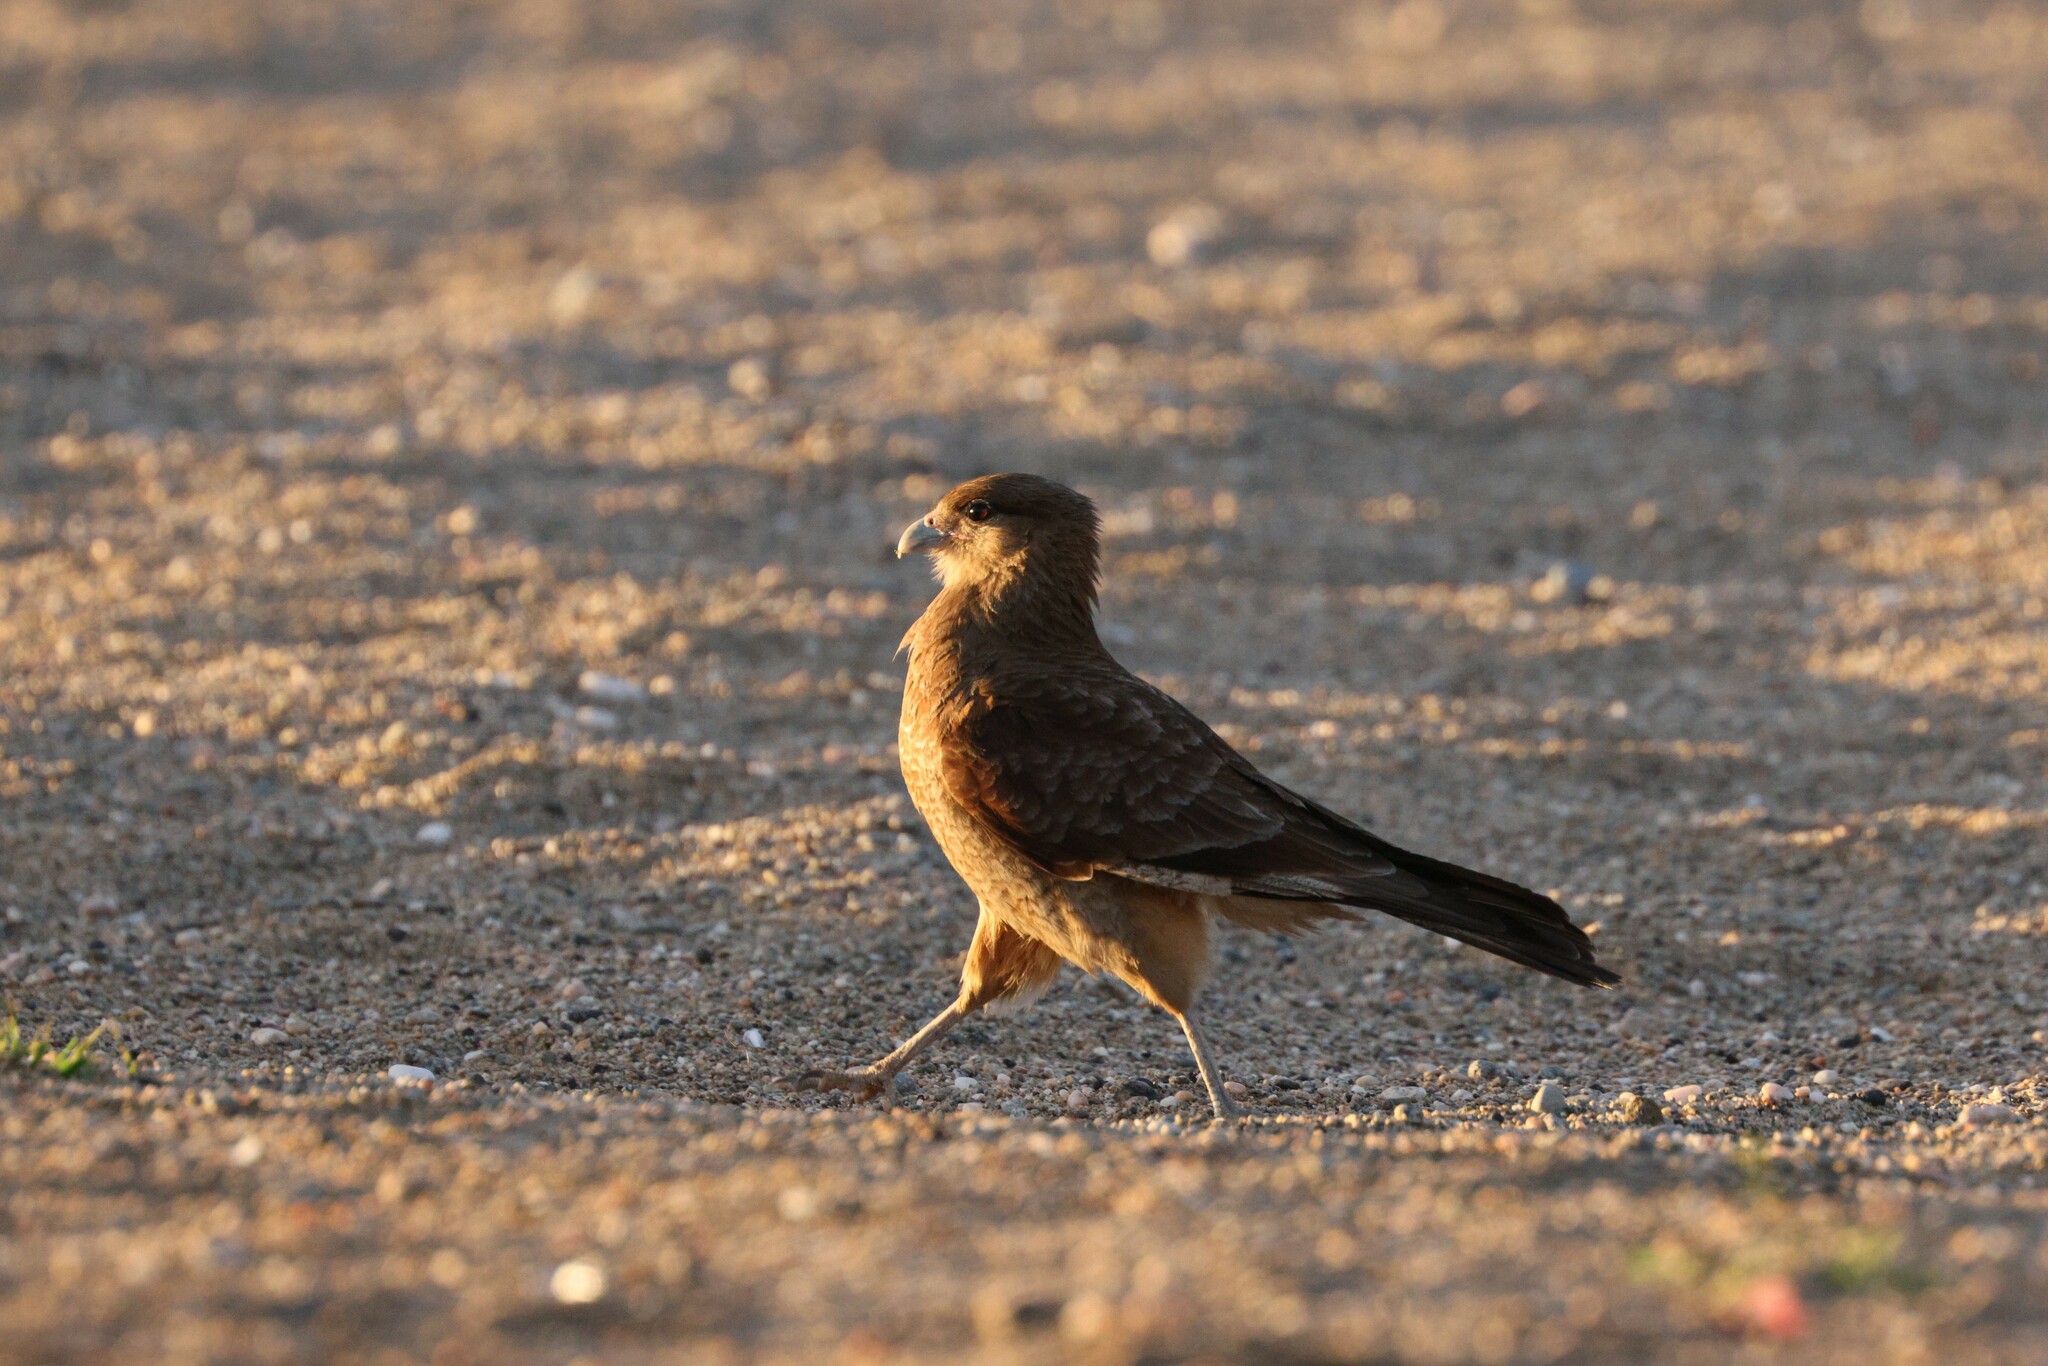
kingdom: Animalia
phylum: Chordata
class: Aves
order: Falconiformes
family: Falconidae
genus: Daptrius
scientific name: Daptrius
